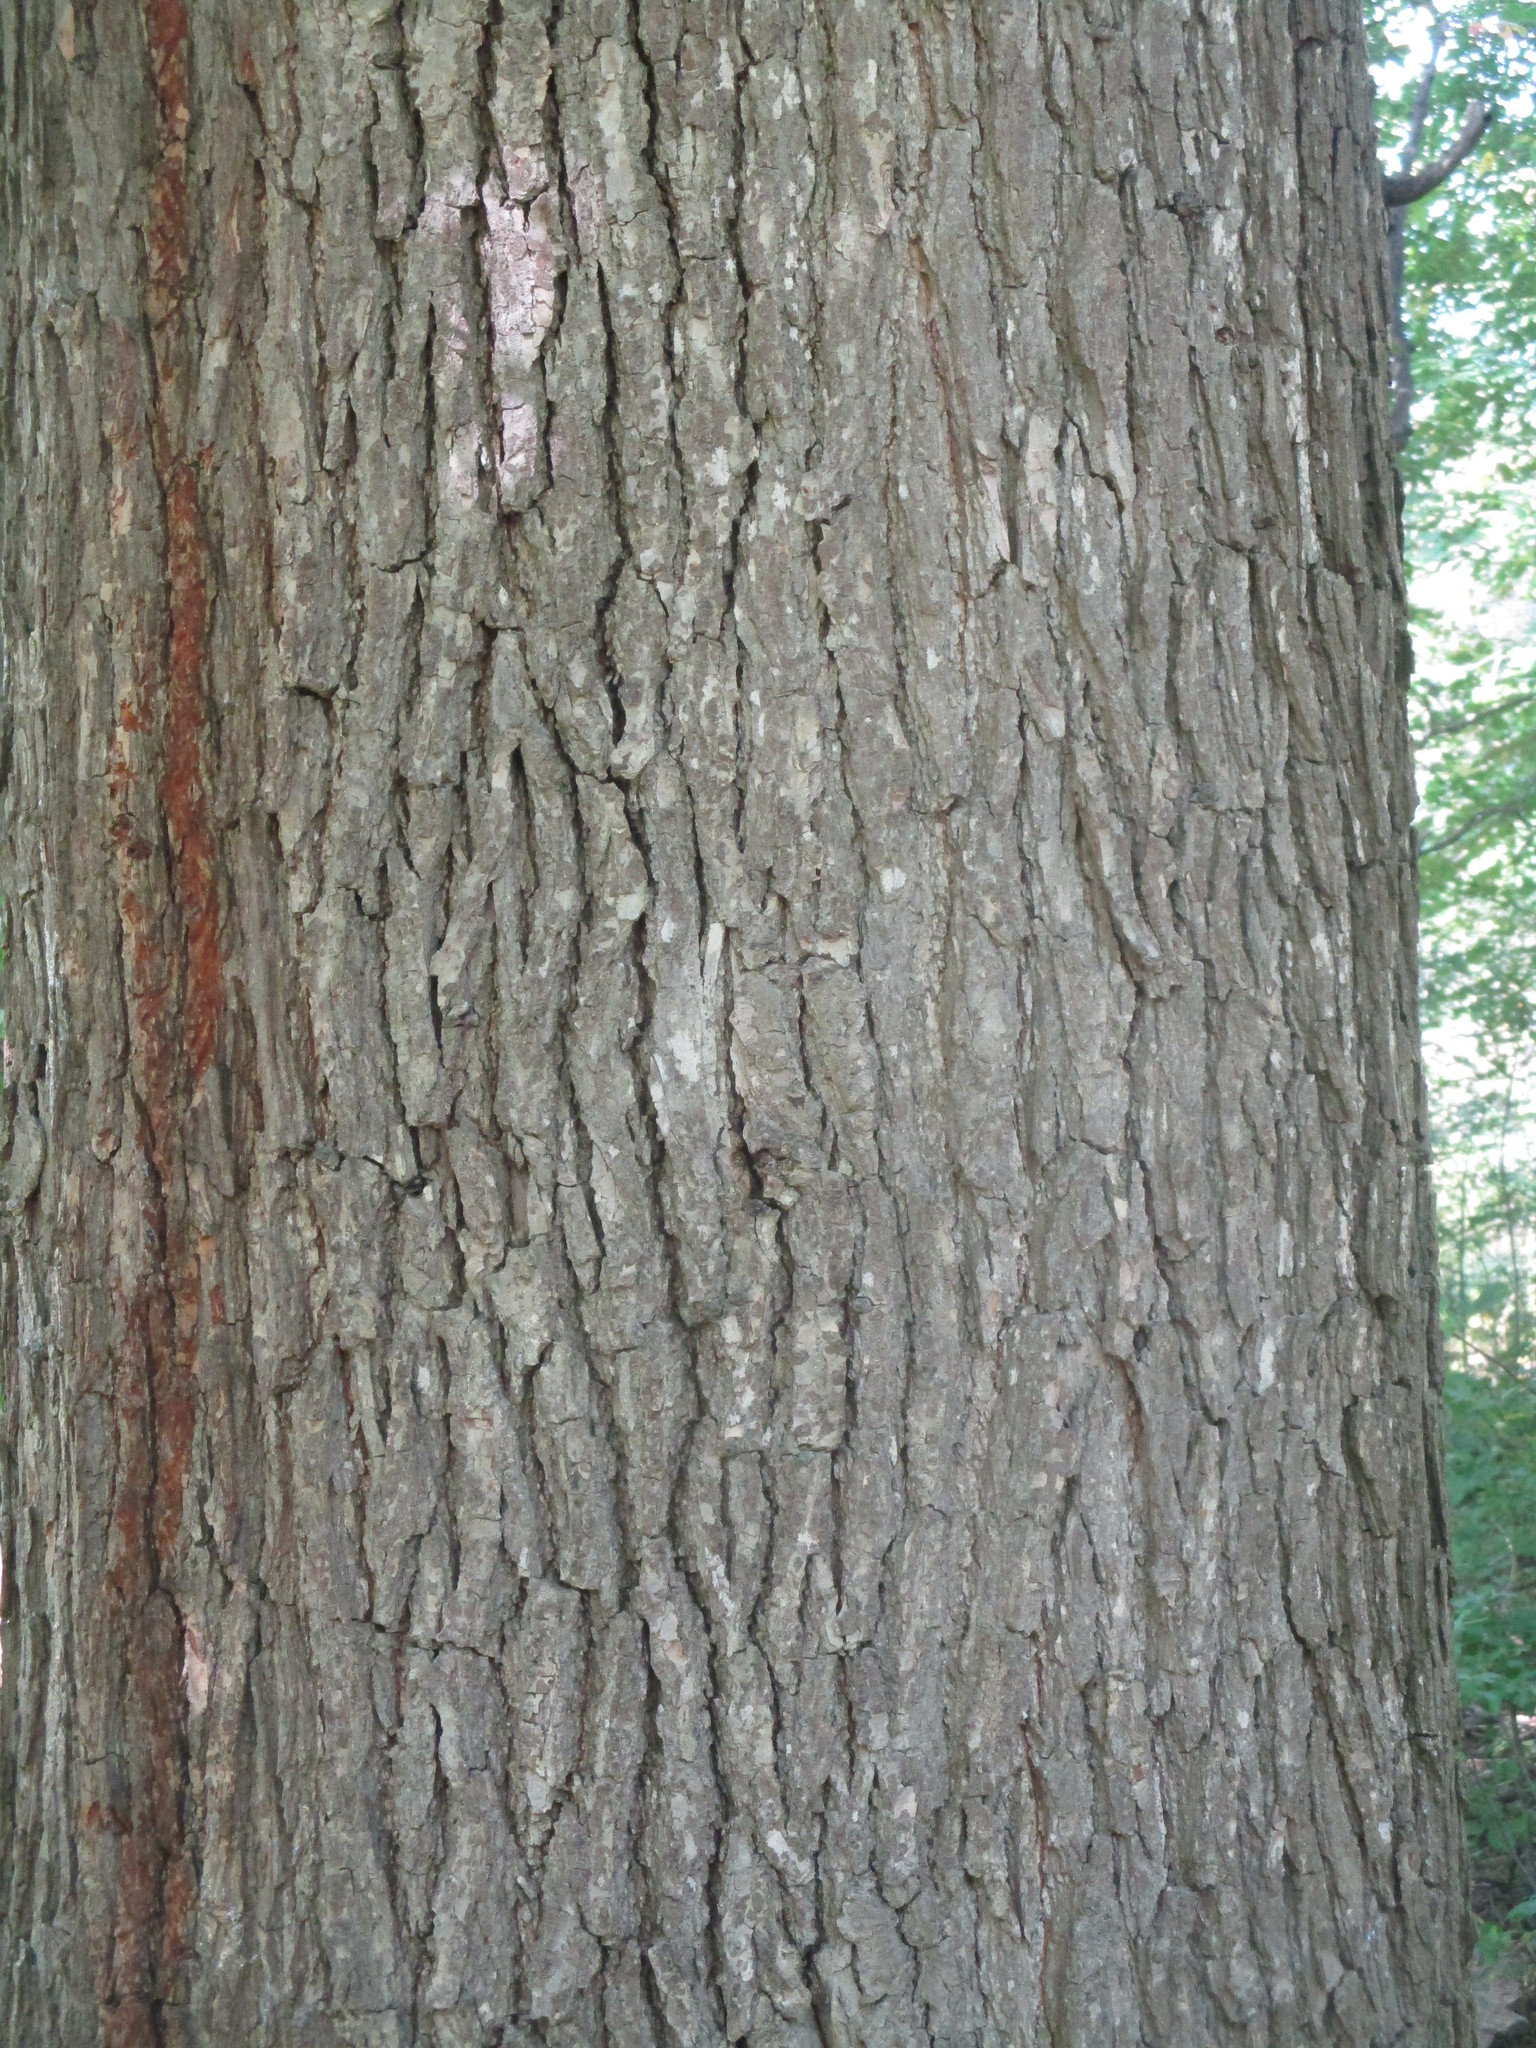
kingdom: Plantae
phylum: Tracheophyta
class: Magnoliopsida
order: Fagales
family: Fagaceae
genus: Quercus
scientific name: Quercus bicolor
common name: Swamp white oak
